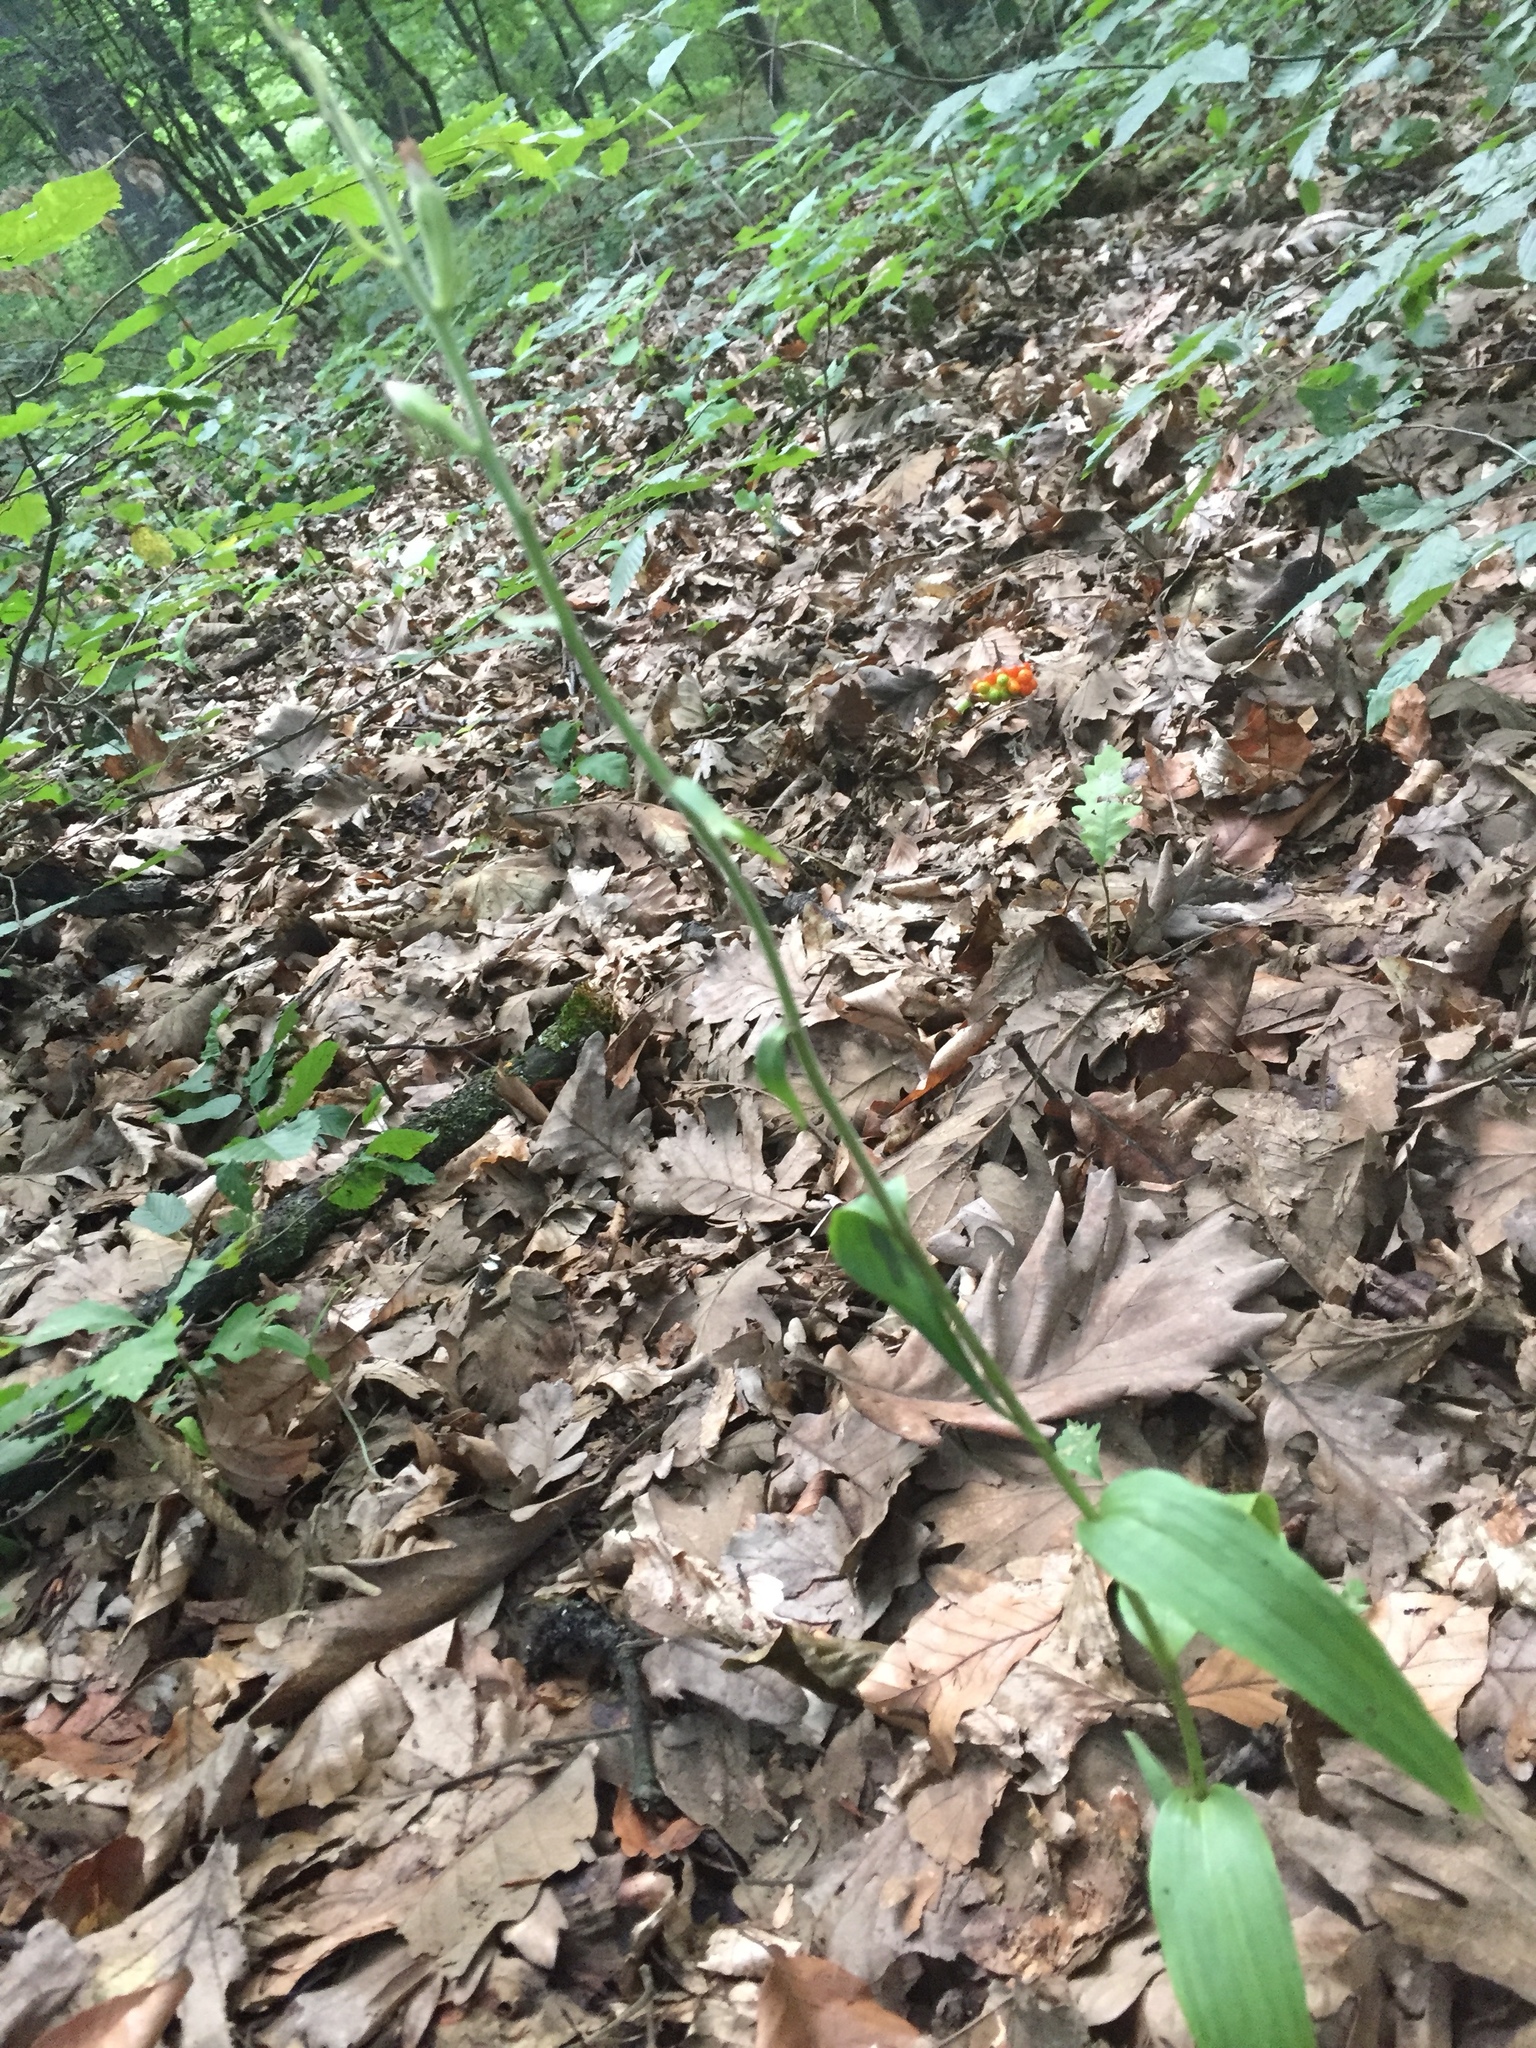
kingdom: Plantae
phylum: Tracheophyta
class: Liliopsida
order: Asparagales
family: Orchidaceae
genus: Cephalanthera
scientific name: Cephalanthera rubra
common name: Red helleborine
